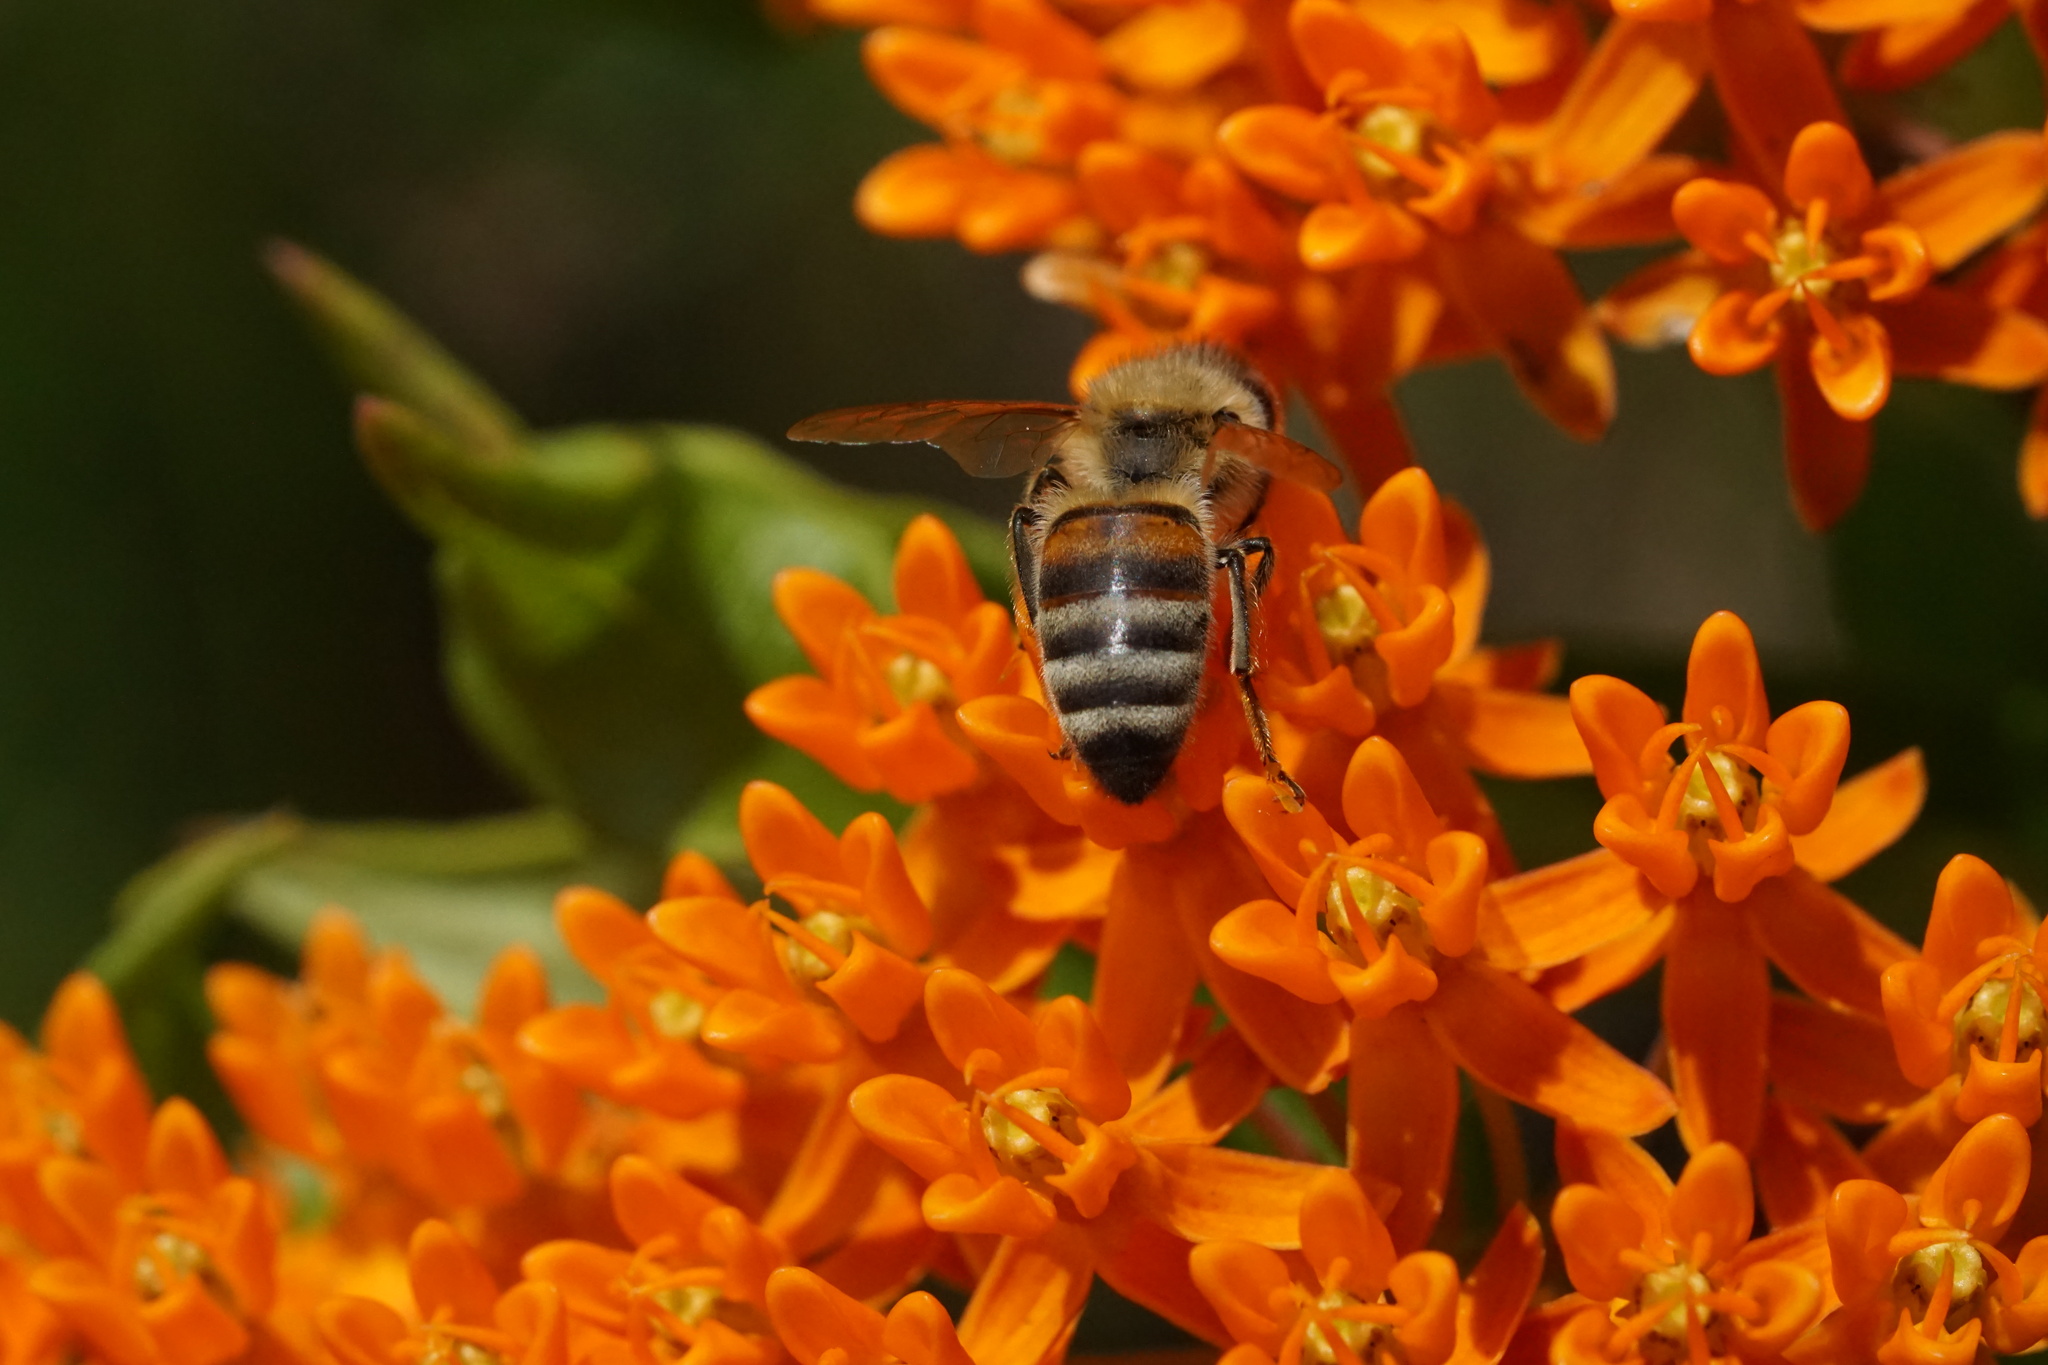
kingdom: Animalia
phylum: Arthropoda
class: Insecta
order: Hymenoptera
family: Apidae
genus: Apis
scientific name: Apis mellifera
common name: Honey bee
